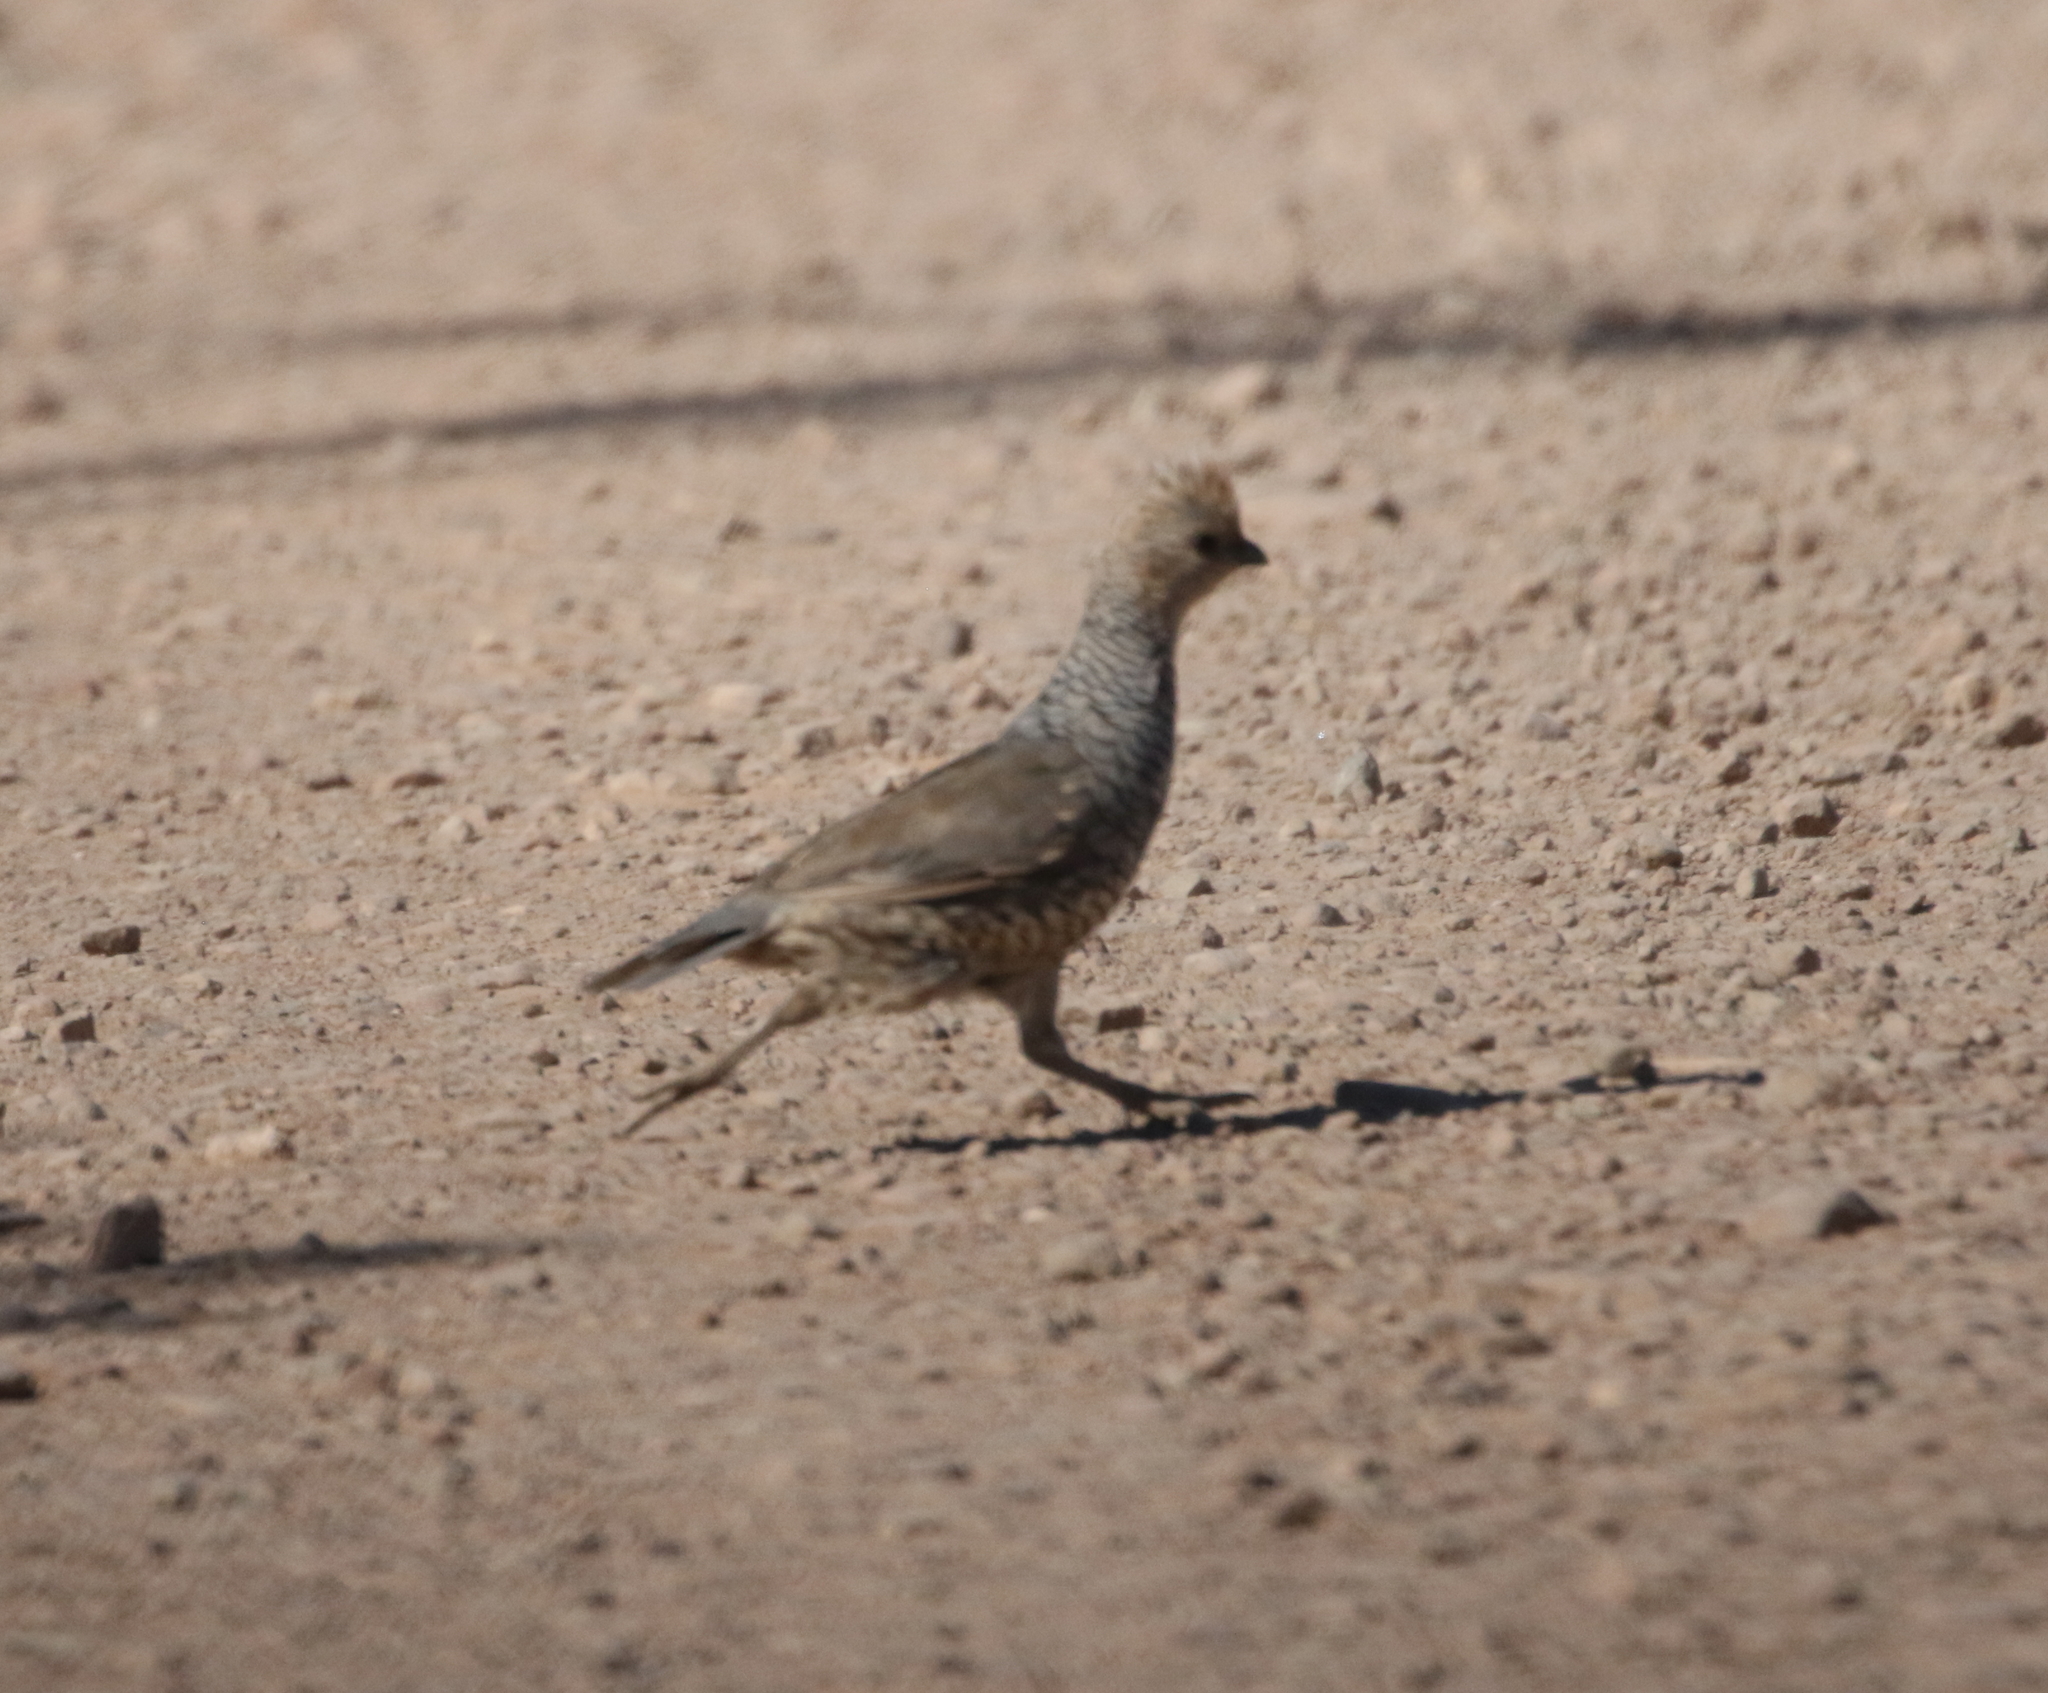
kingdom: Animalia
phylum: Chordata
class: Aves
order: Galliformes
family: Odontophoridae
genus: Callipepla
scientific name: Callipepla squamata
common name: Scaled quail
